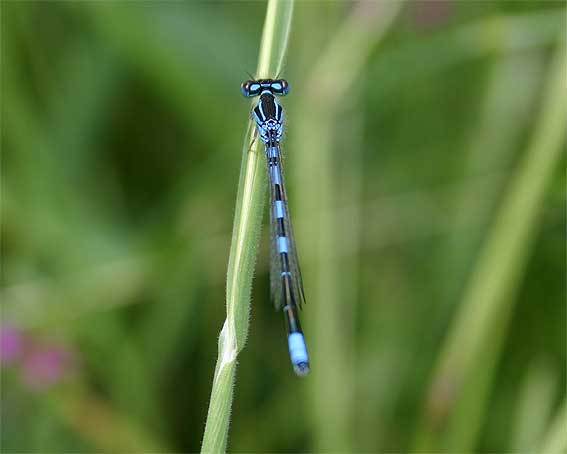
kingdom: Animalia
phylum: Arthropoda
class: Insecta
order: Odonata
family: Coenagrionidae
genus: Coenagrion
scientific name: Coenagrion scitulum
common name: Dainty bluet
